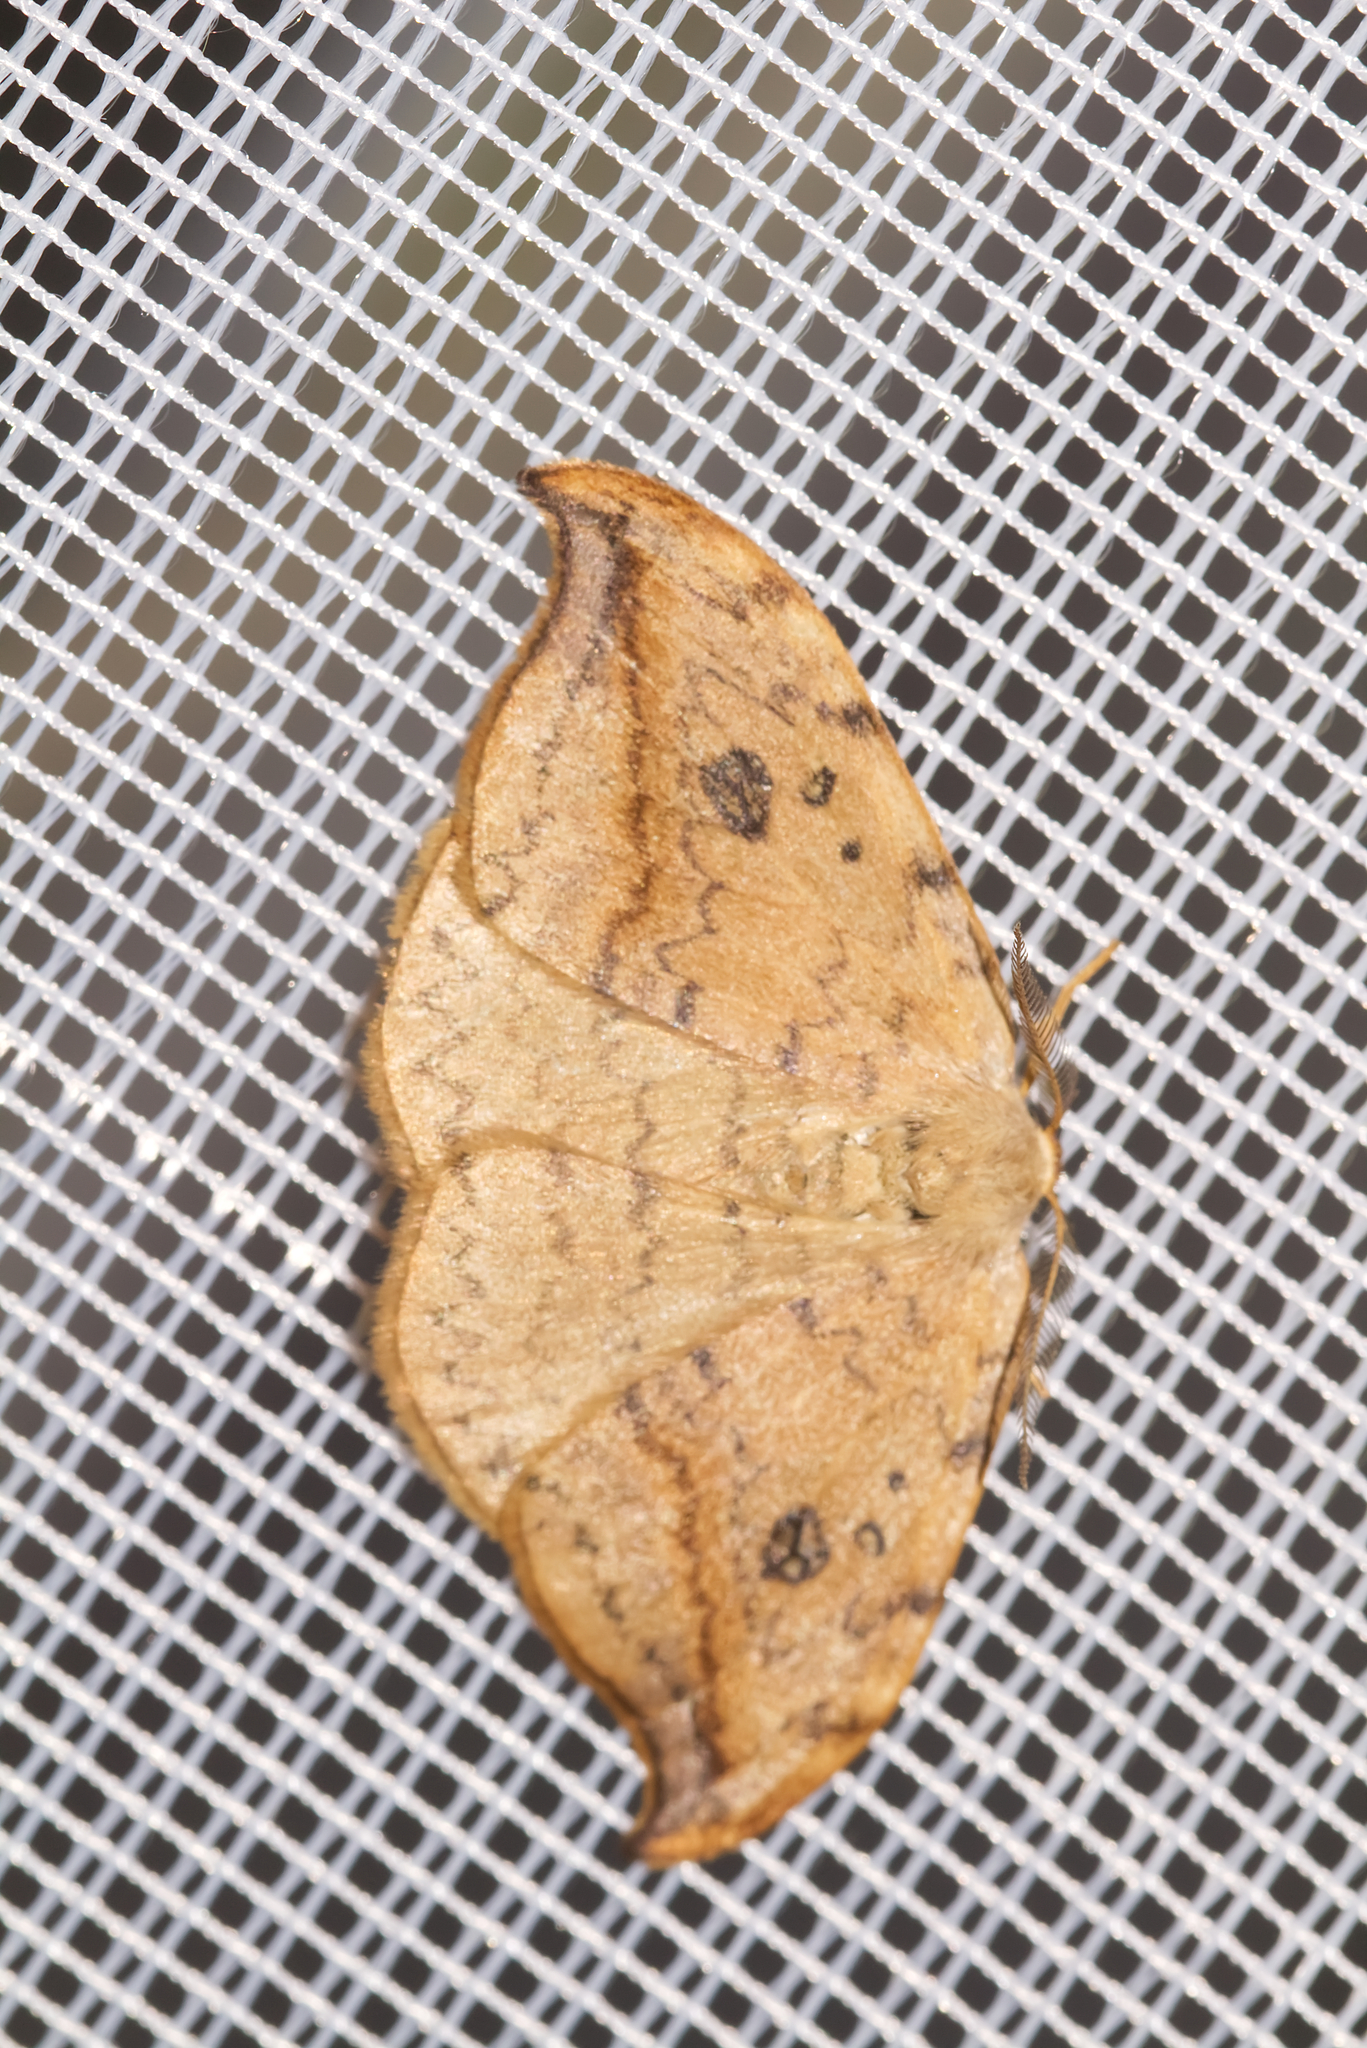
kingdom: Animalia
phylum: Arthropoda
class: Insecta
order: Lepidoptera
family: Drepanidae
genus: Drepana
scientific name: Drepana falcataria
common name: Pebble hook-tip
